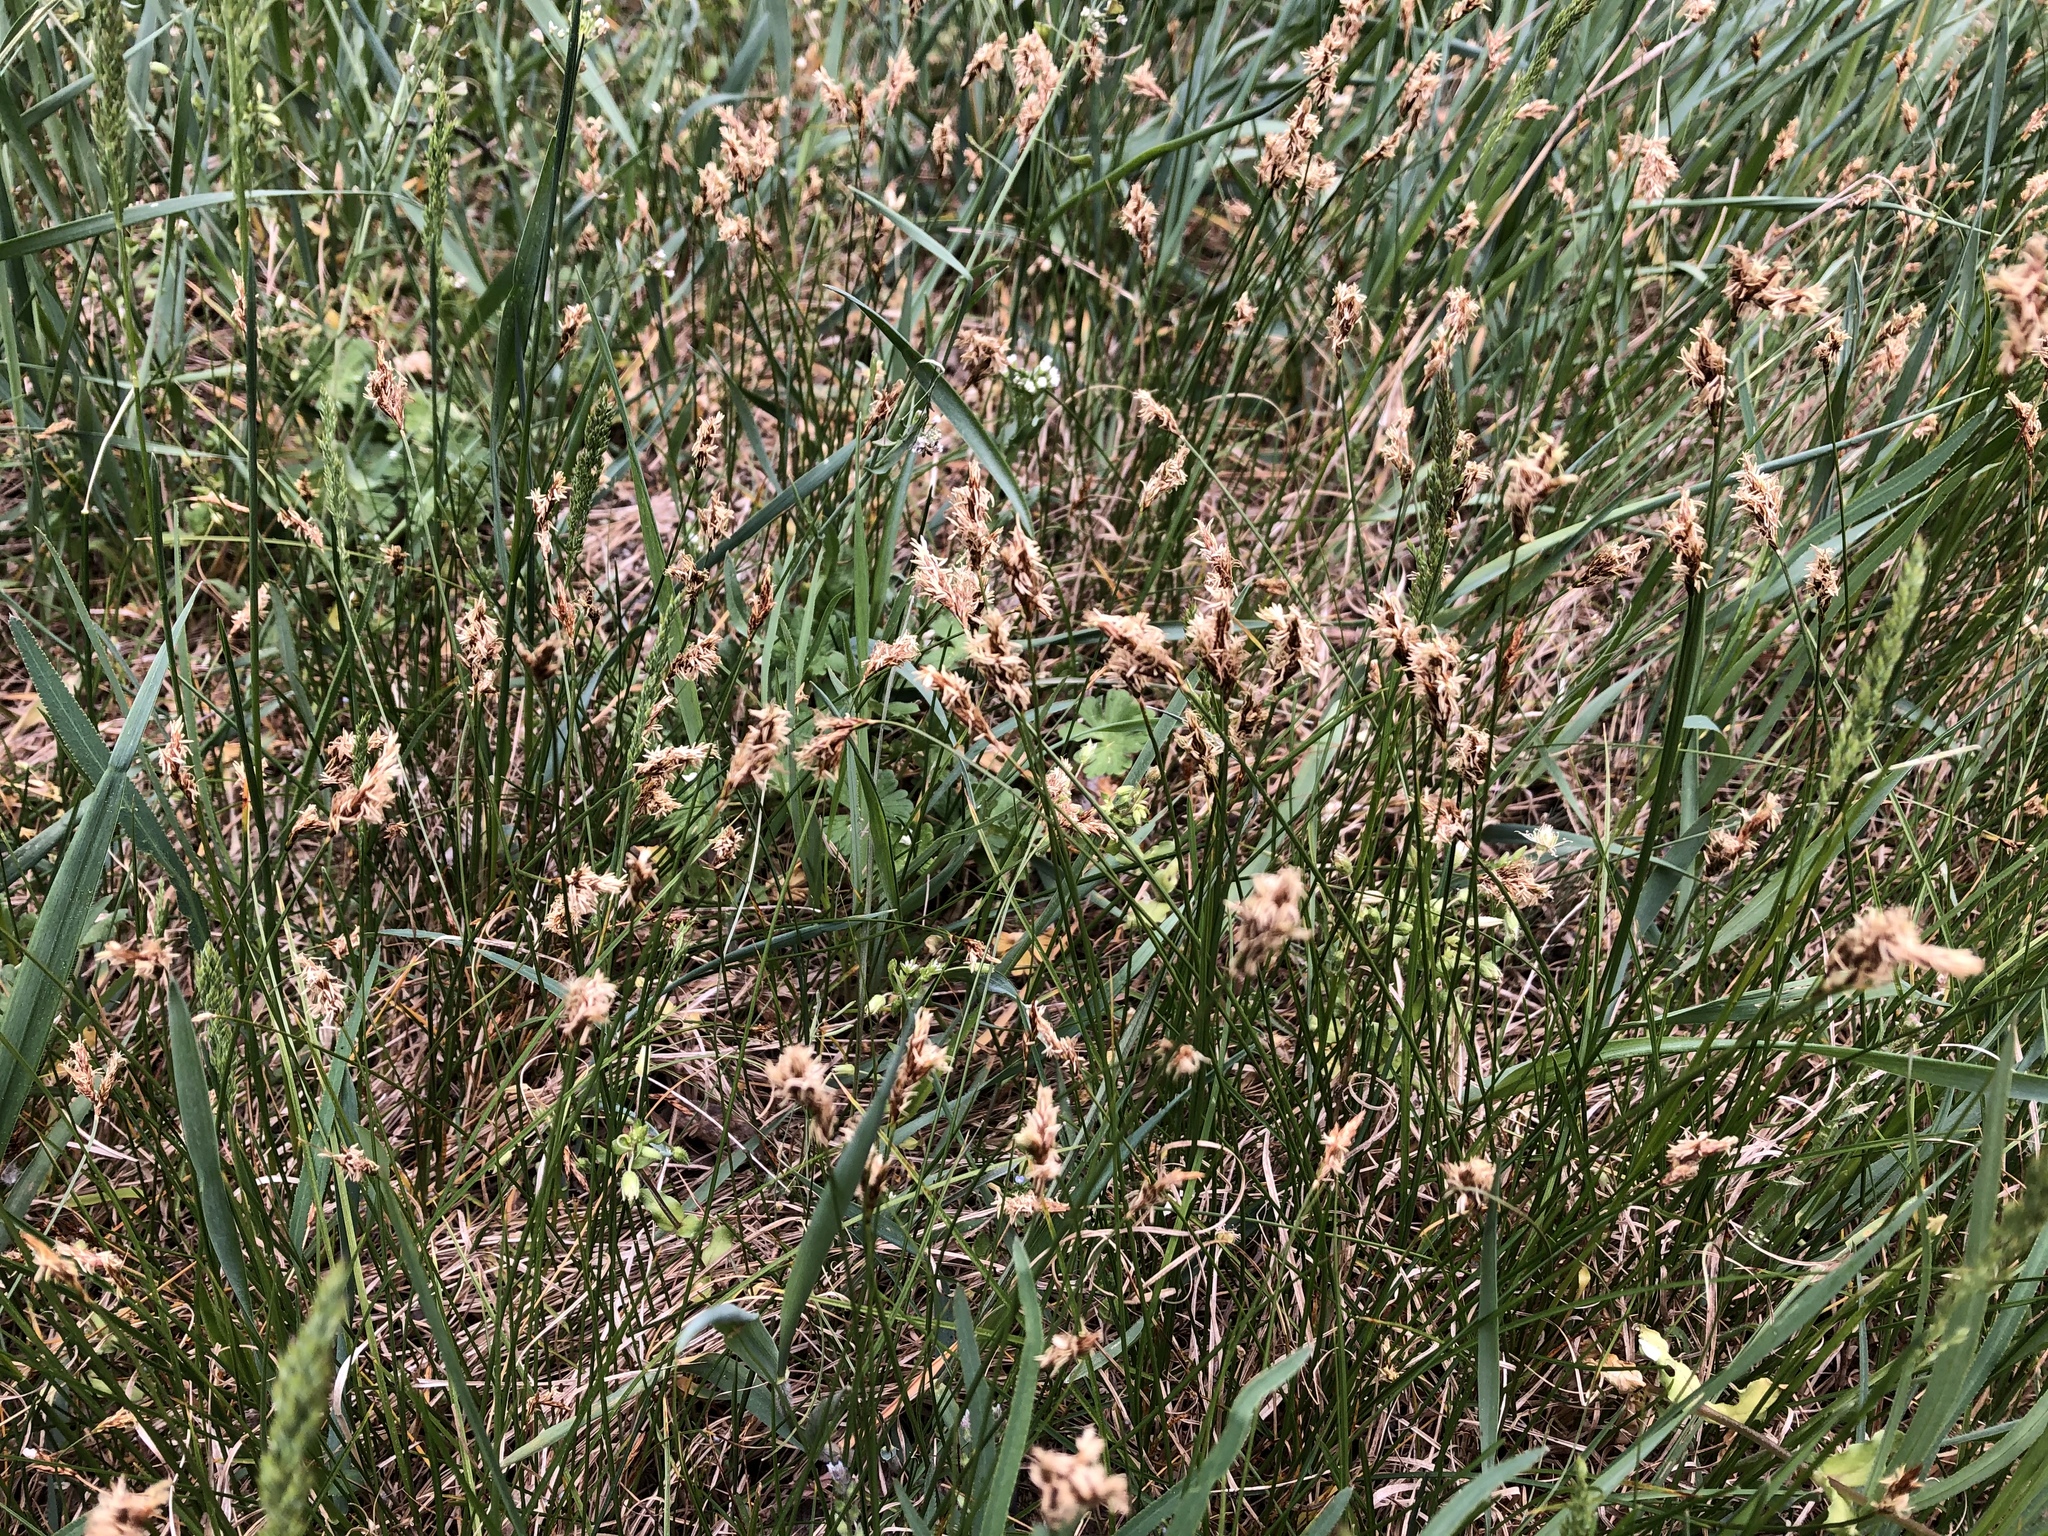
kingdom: Plantae
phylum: Tracheophyta
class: Liliopsida
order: Poales
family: Cyperaceae
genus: Carex
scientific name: Carex praecox
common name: Early sedge
